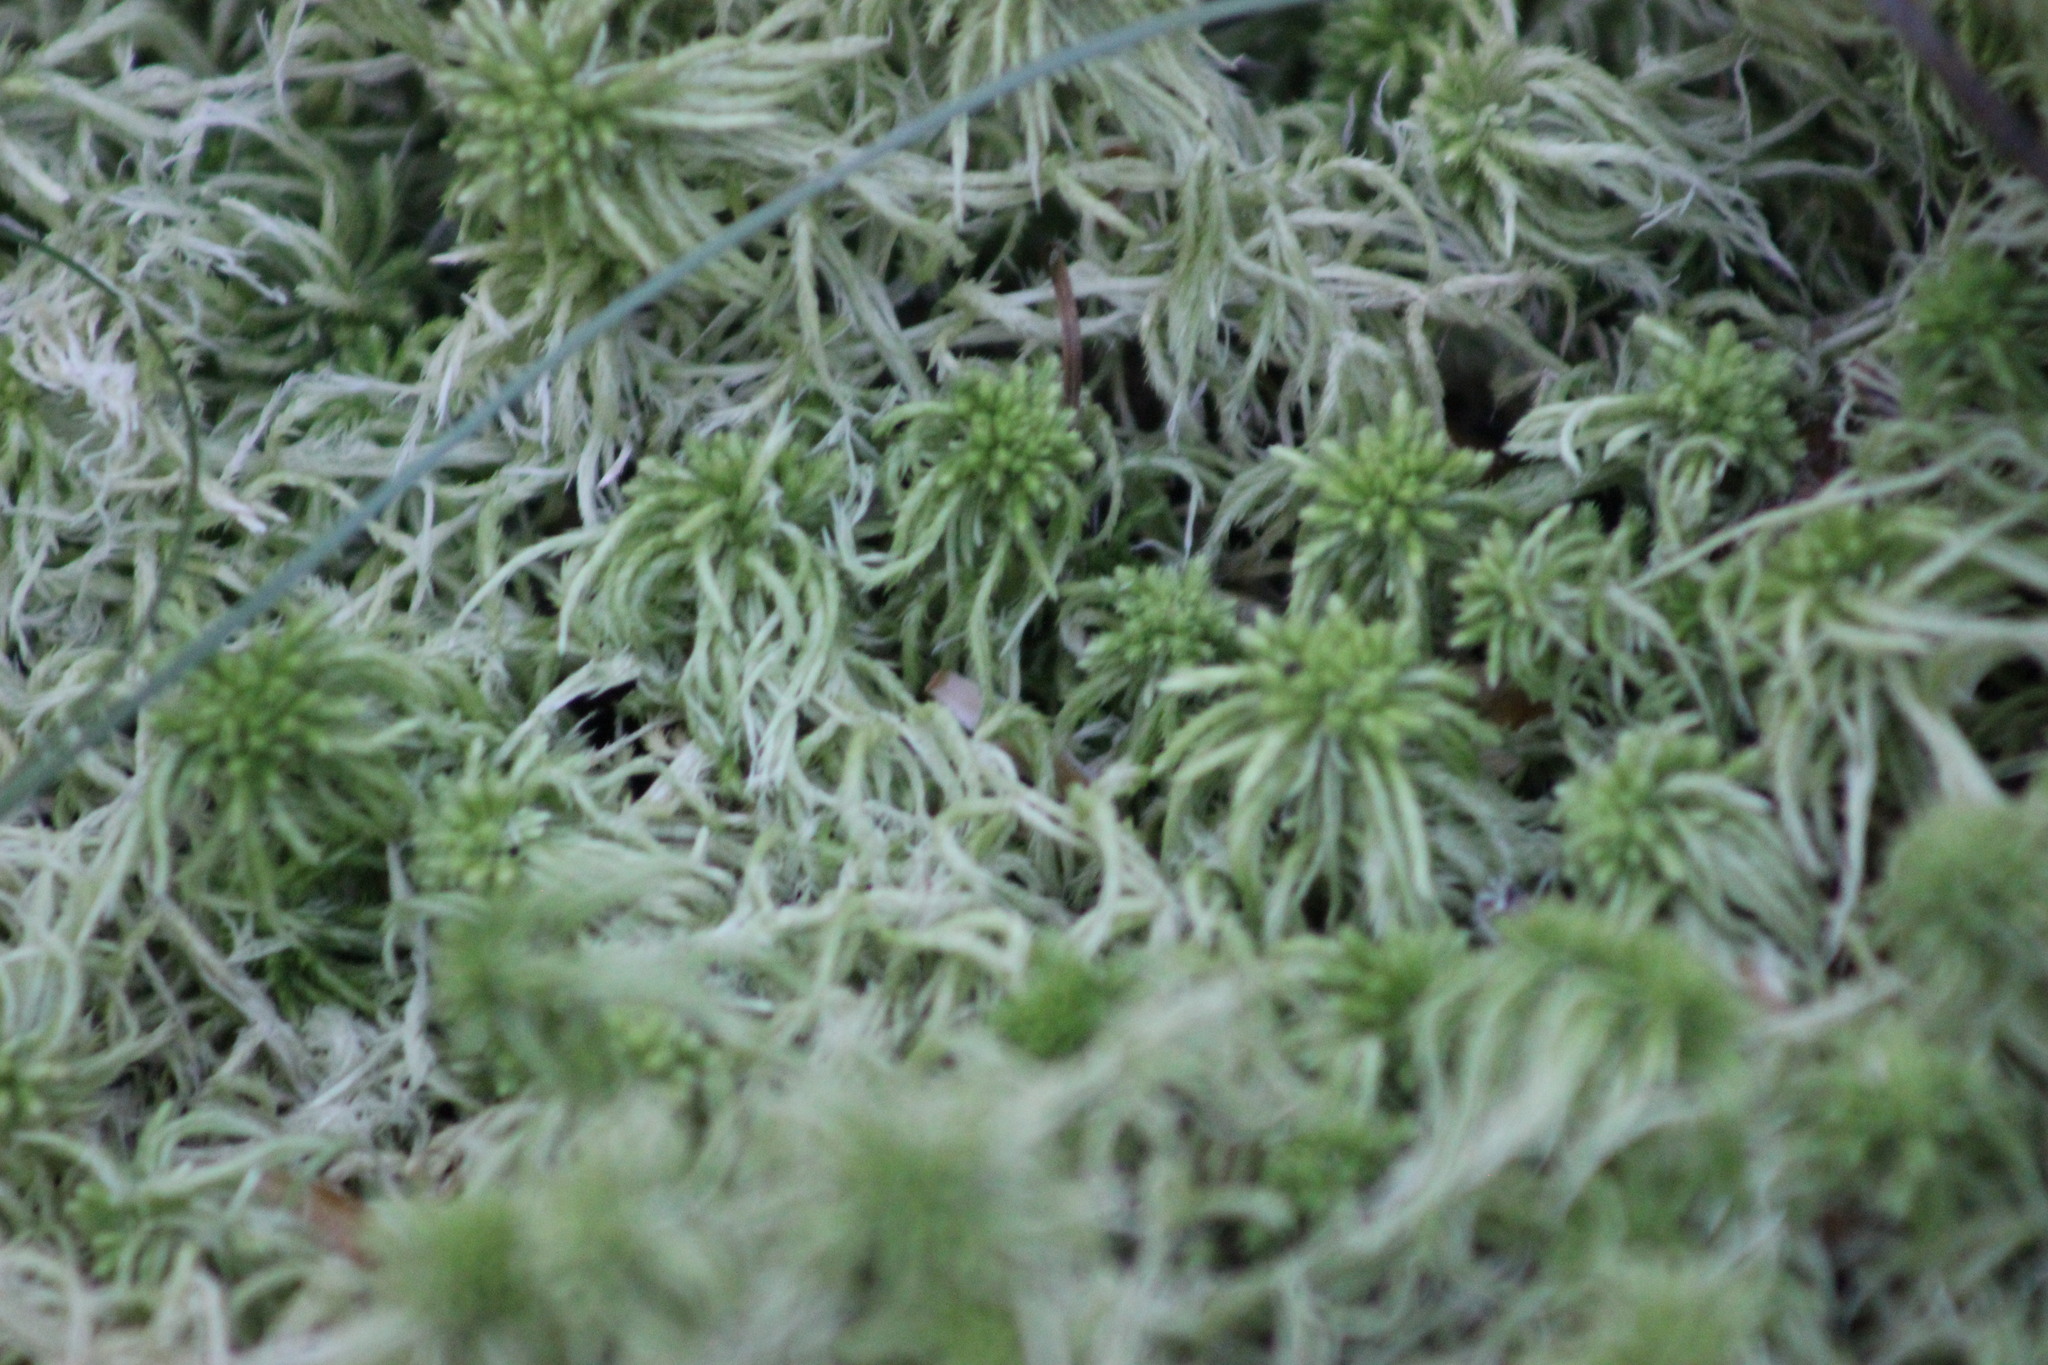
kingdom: Plantae
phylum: Bryophyta
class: Sphagnopsida
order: Sphagnales
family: Sphagnaceae
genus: Sphagnum
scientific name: Sphagnum squarrosum
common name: Shaggy peat moss
